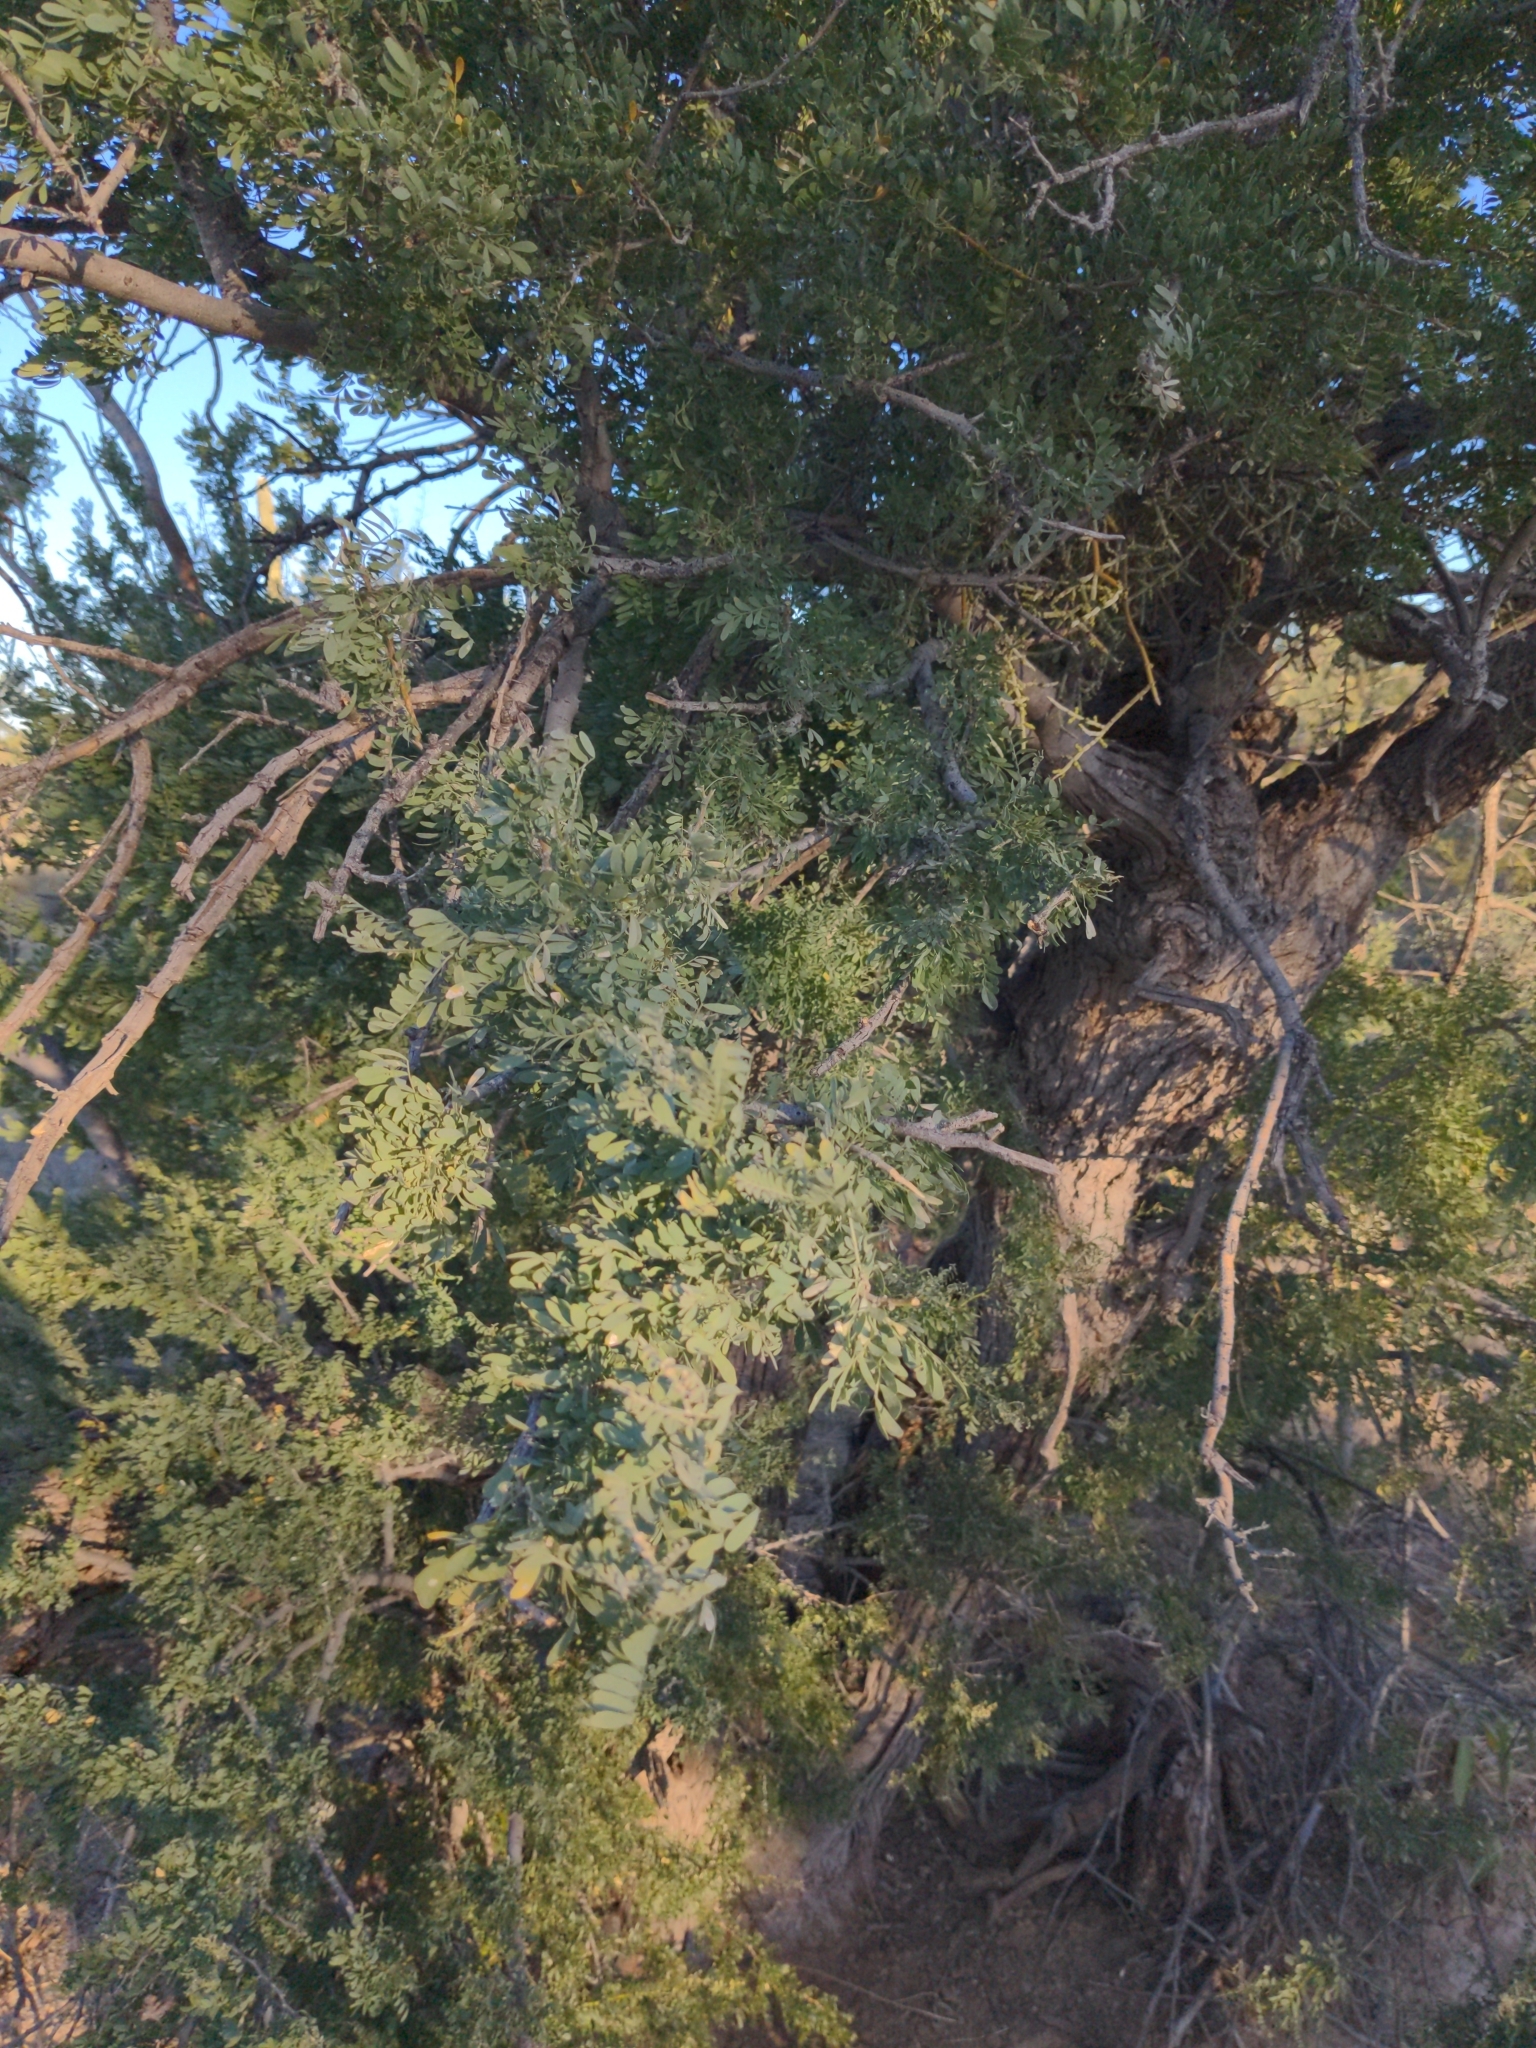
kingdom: Plantae
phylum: Tracheophyta
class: Magnoliopsida
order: Fabales
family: Fabaceae
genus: Olneya
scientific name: Olneya tesota
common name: Desert ironwood
